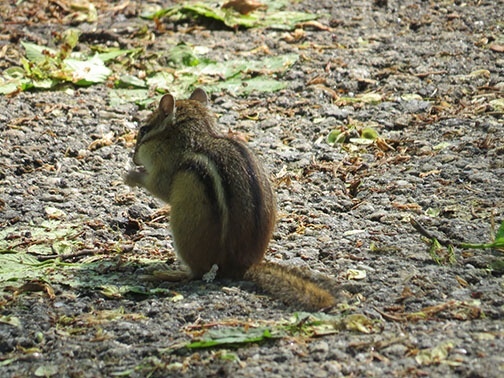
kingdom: Animalia
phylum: Chordata
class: Mammalia
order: Rodentia
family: Sciuridae
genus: Tamias
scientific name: Tamias striatus
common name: Eastern chipmunk
